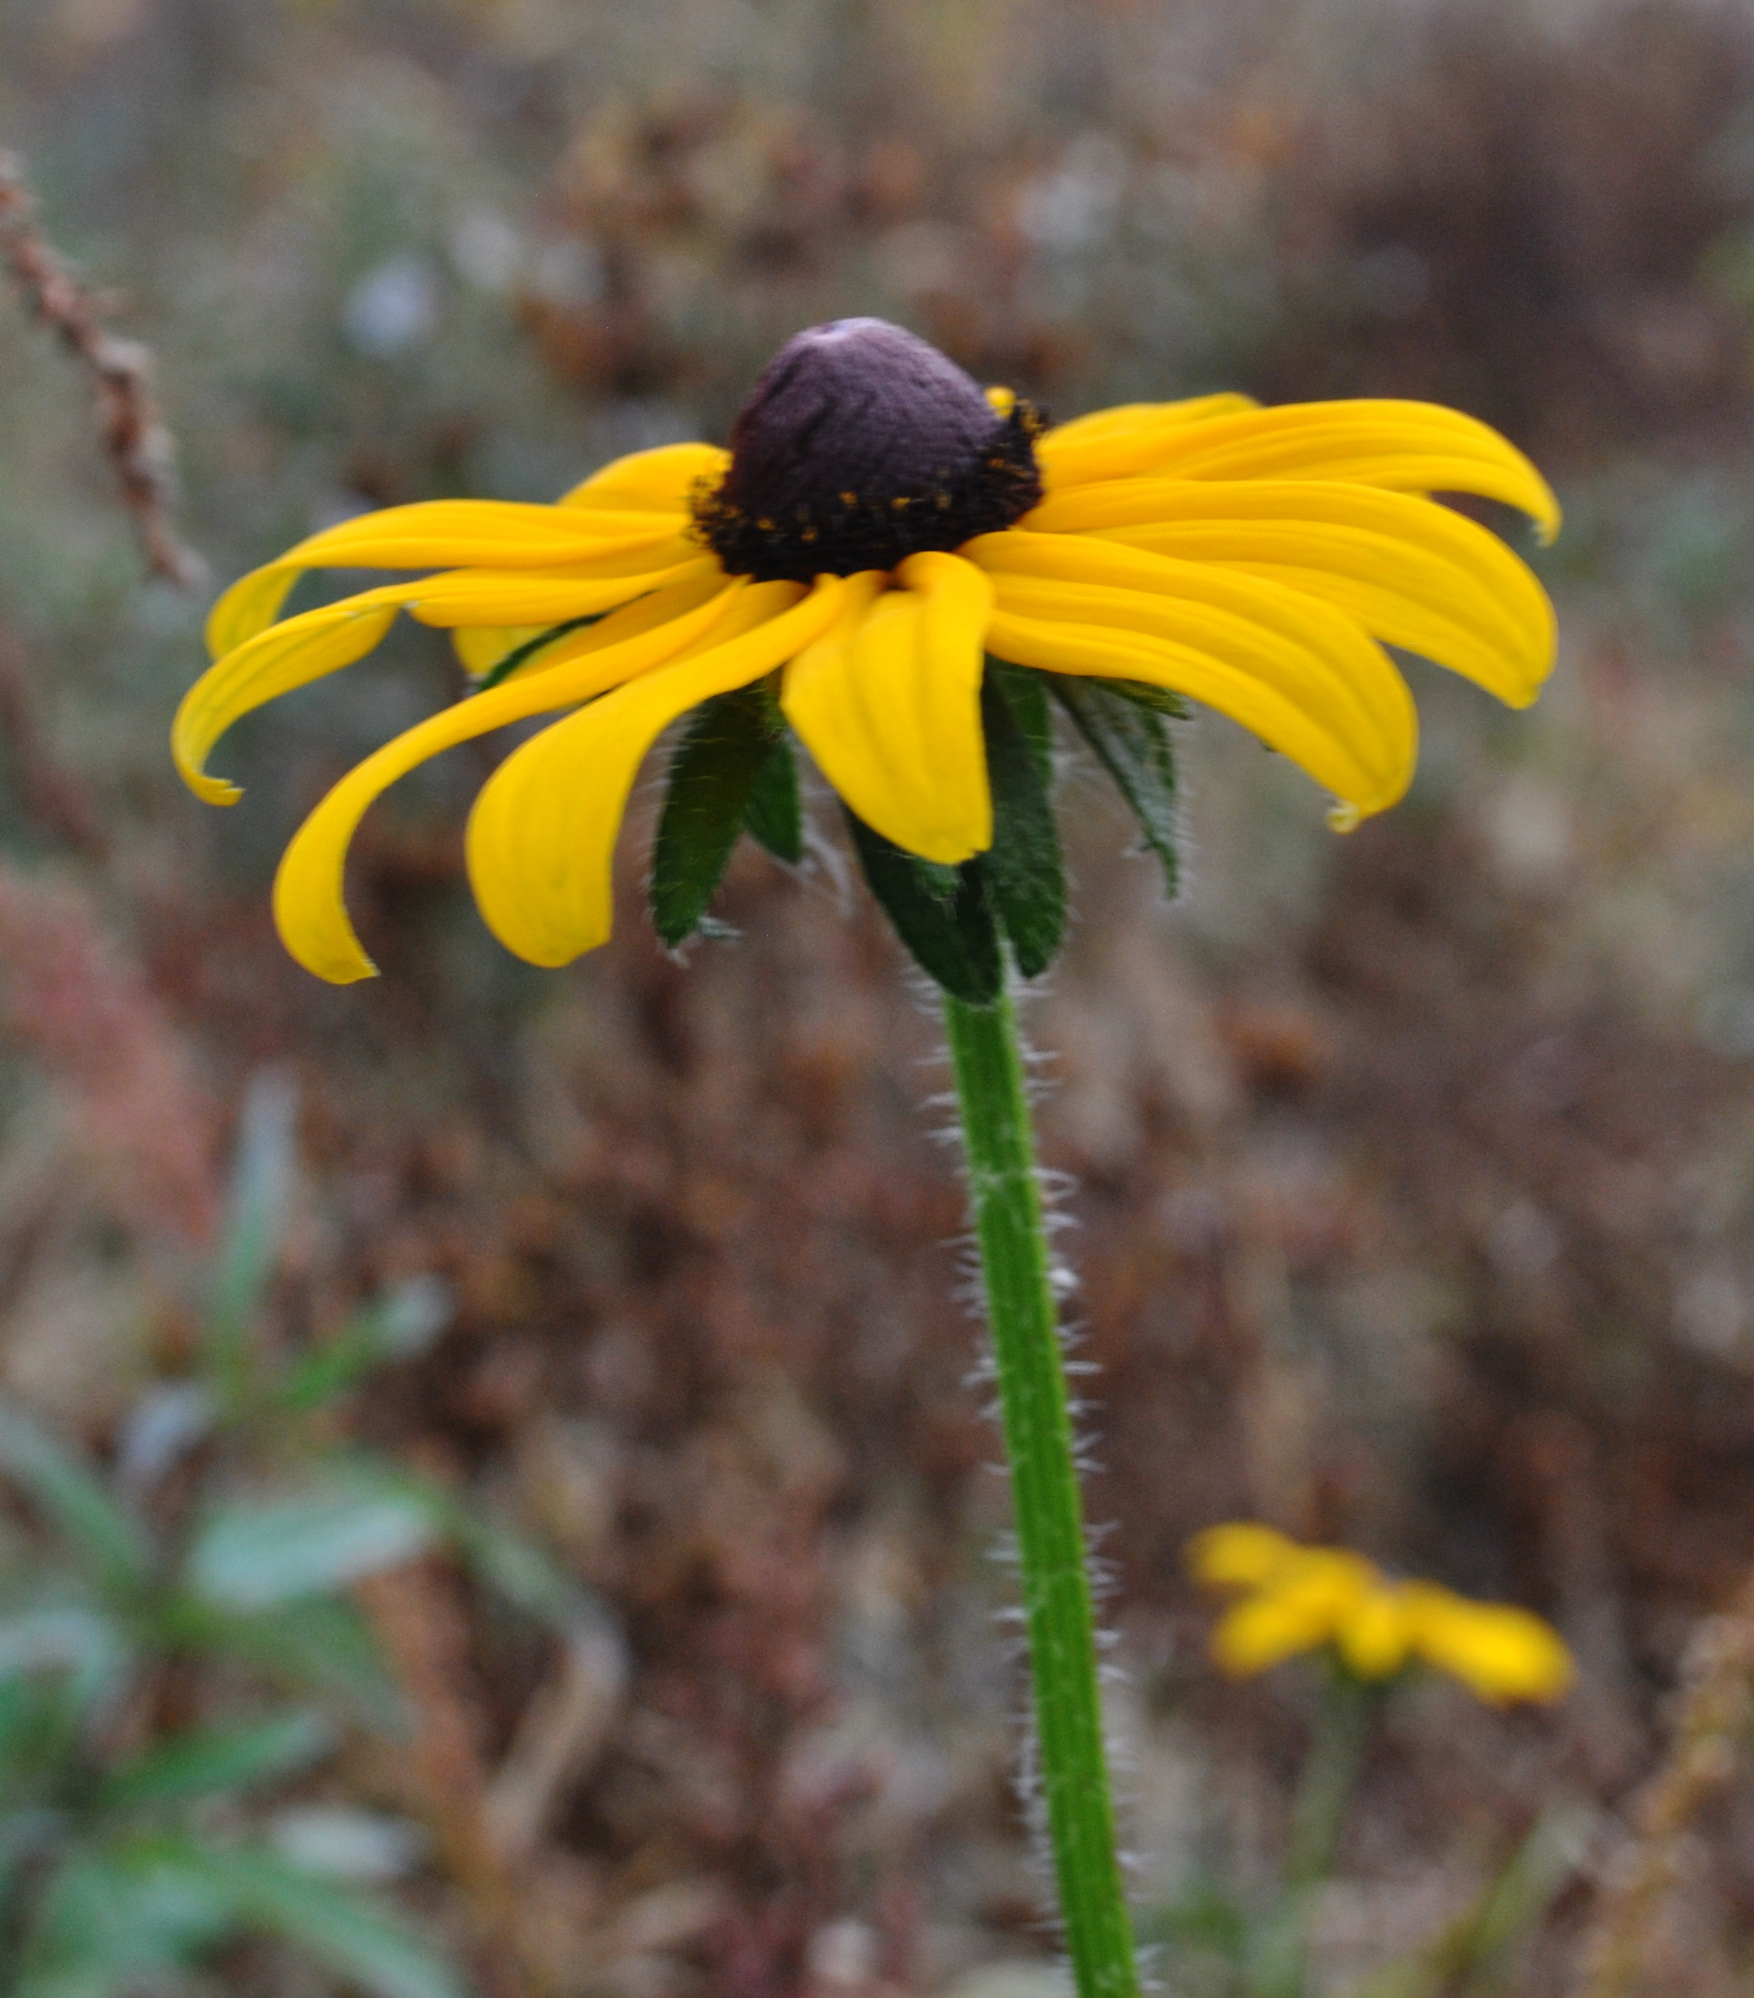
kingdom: Plantae
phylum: Tracheophyta
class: Magnoliopsida
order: Asterales
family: Asteraceae
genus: Rudbeckia
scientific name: Rudbeckia hirta
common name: Black-eyed-susan
